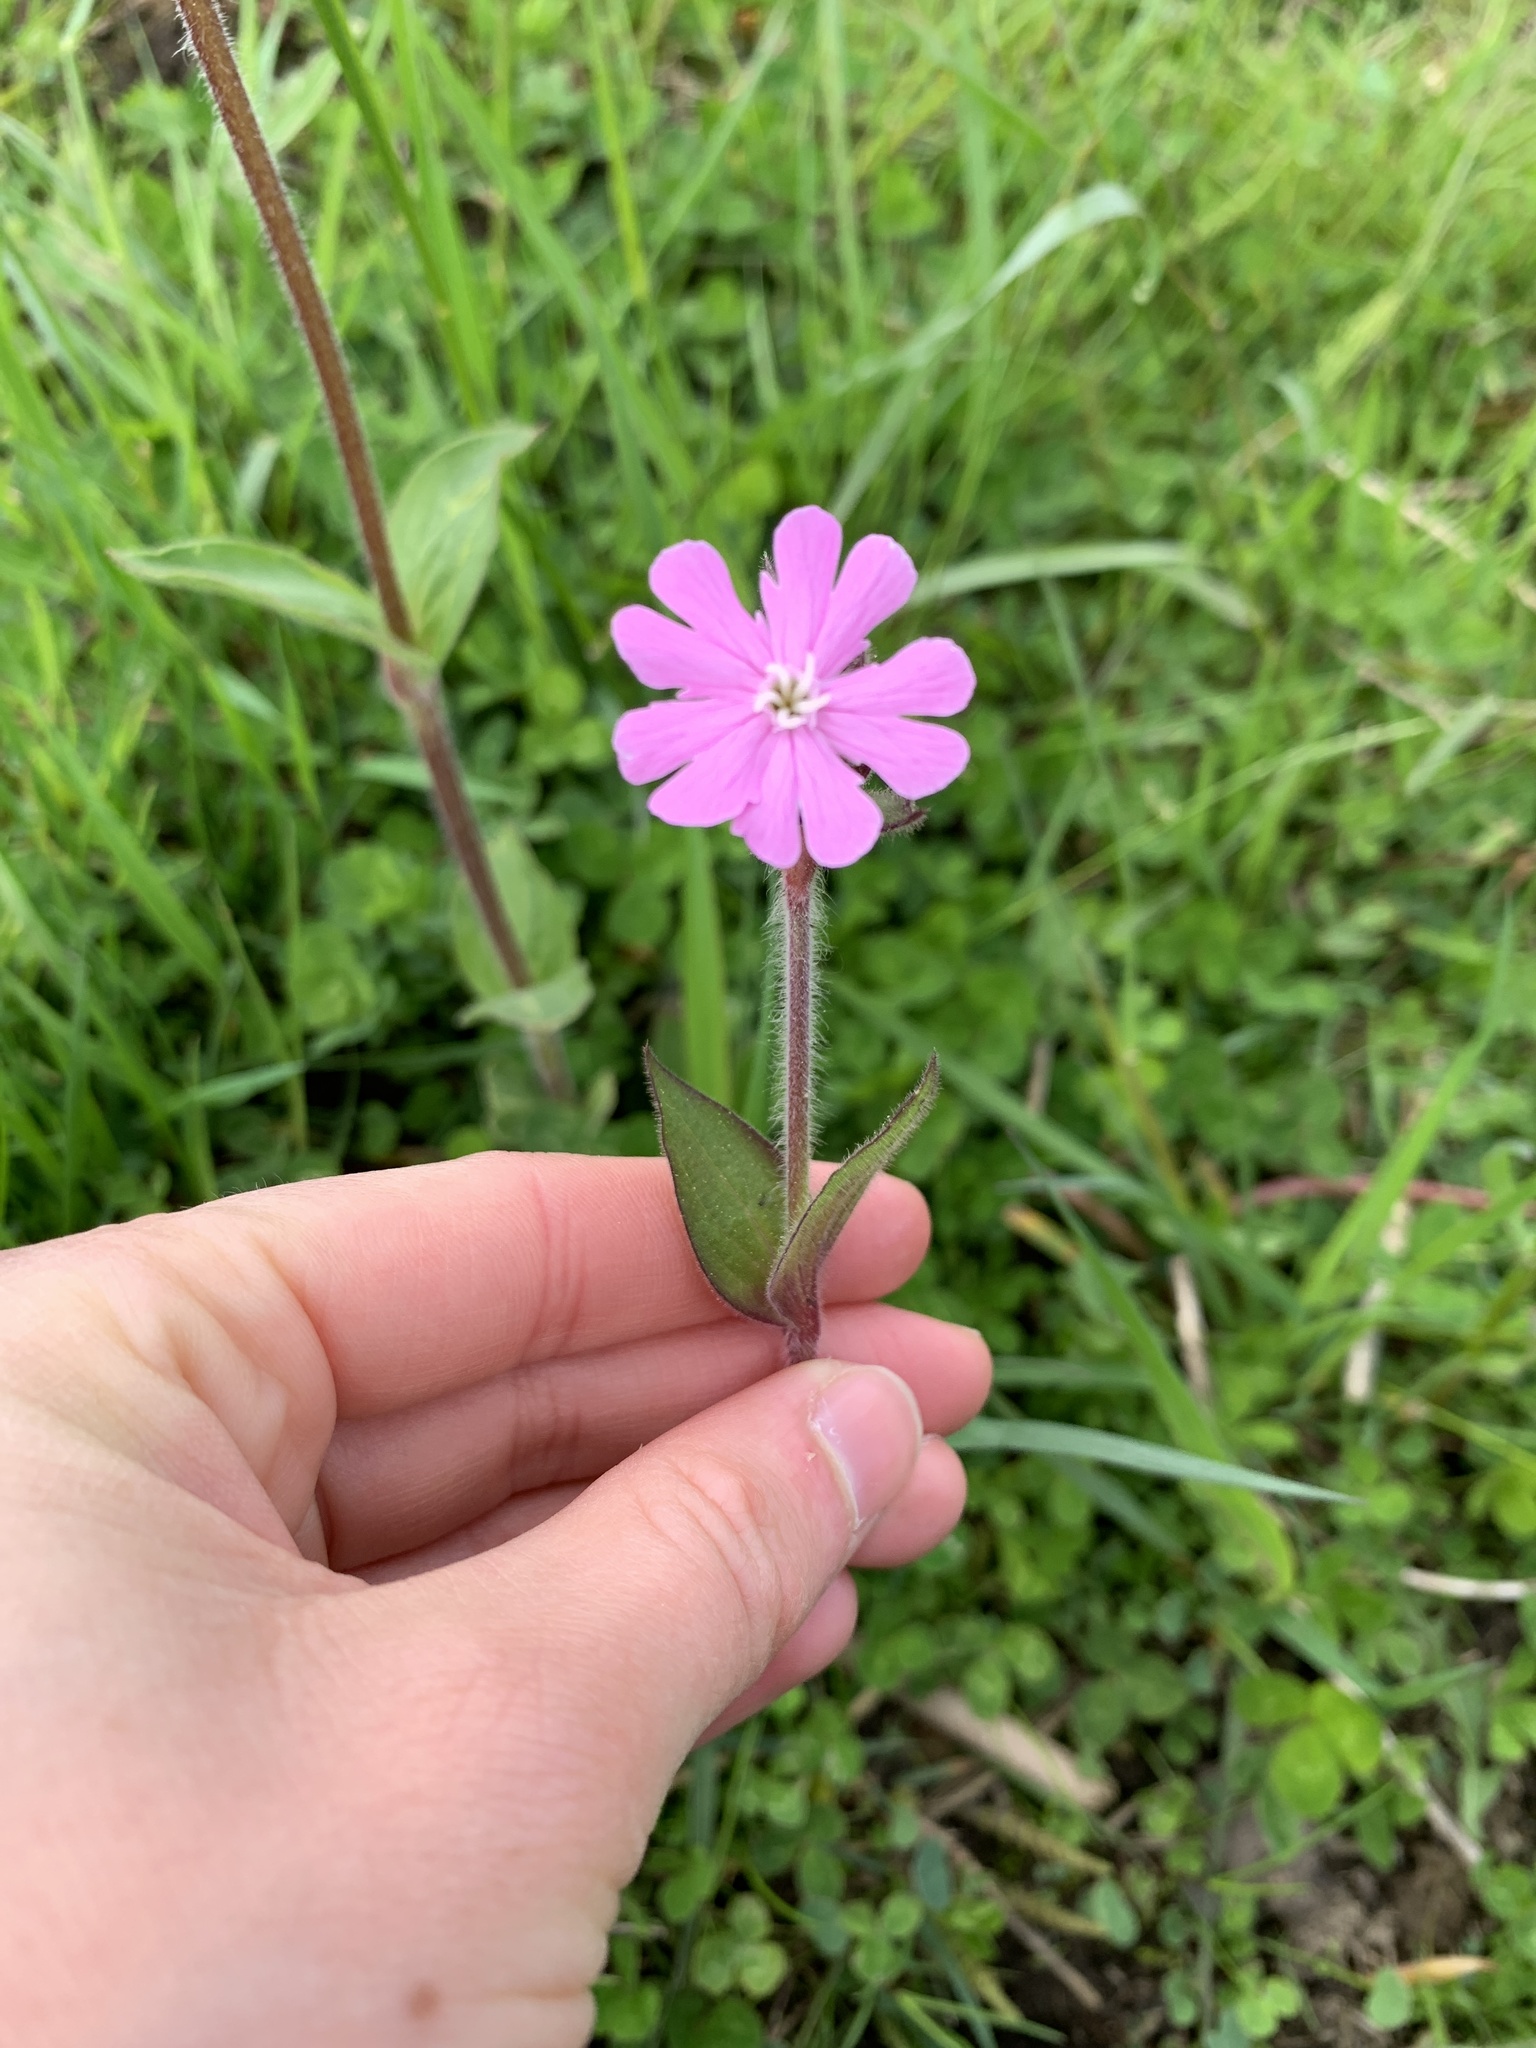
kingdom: Plantae
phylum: Tracheophyta
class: Magnoliopsida
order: Caryophyllales
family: Caryophyllaceae
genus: Silene
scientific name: Silene dioica
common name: Red campion
